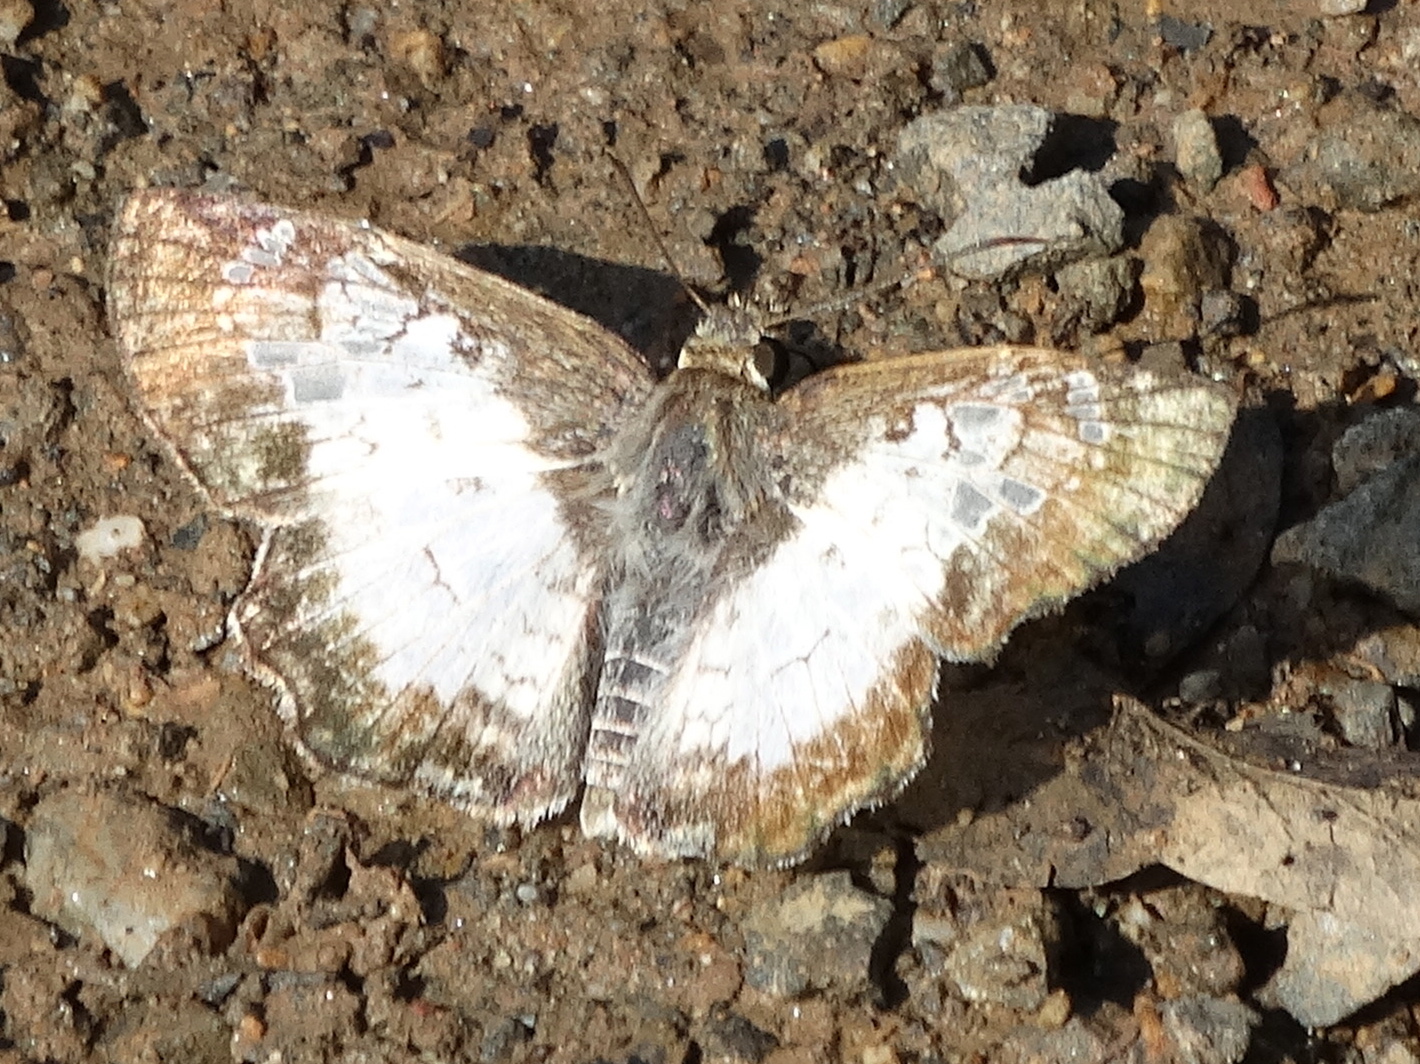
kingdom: Animalia
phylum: Arthropoda
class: Insecta
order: Lepidoptera
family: Hesperiidae
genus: Antigonus
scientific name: Antigonus emorsa
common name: White spurwing
